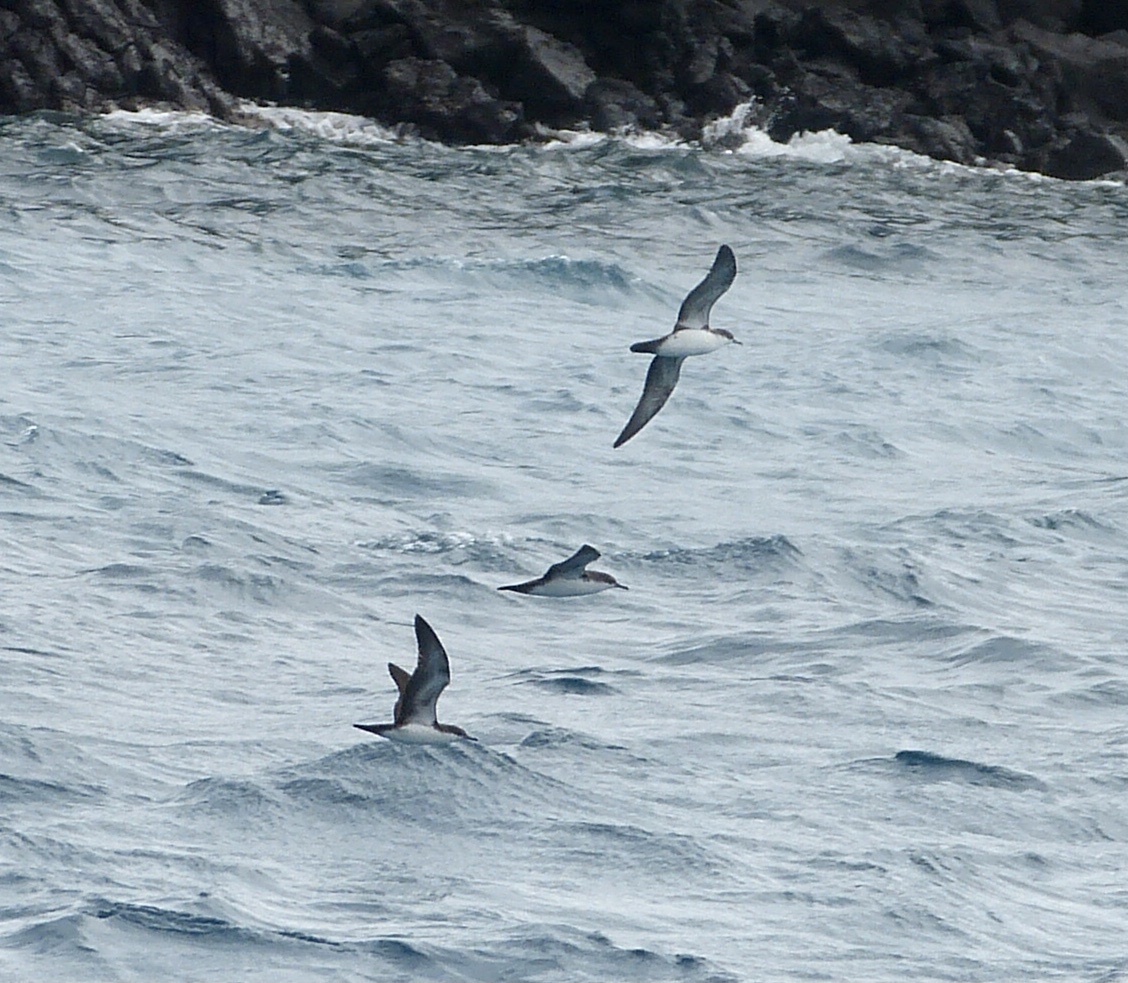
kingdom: Animalia
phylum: Chordata
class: Aves
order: Procellariiformes
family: Procellariidae
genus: Puffinus
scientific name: Puffinus subalaris
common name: Galapagos shearwater
